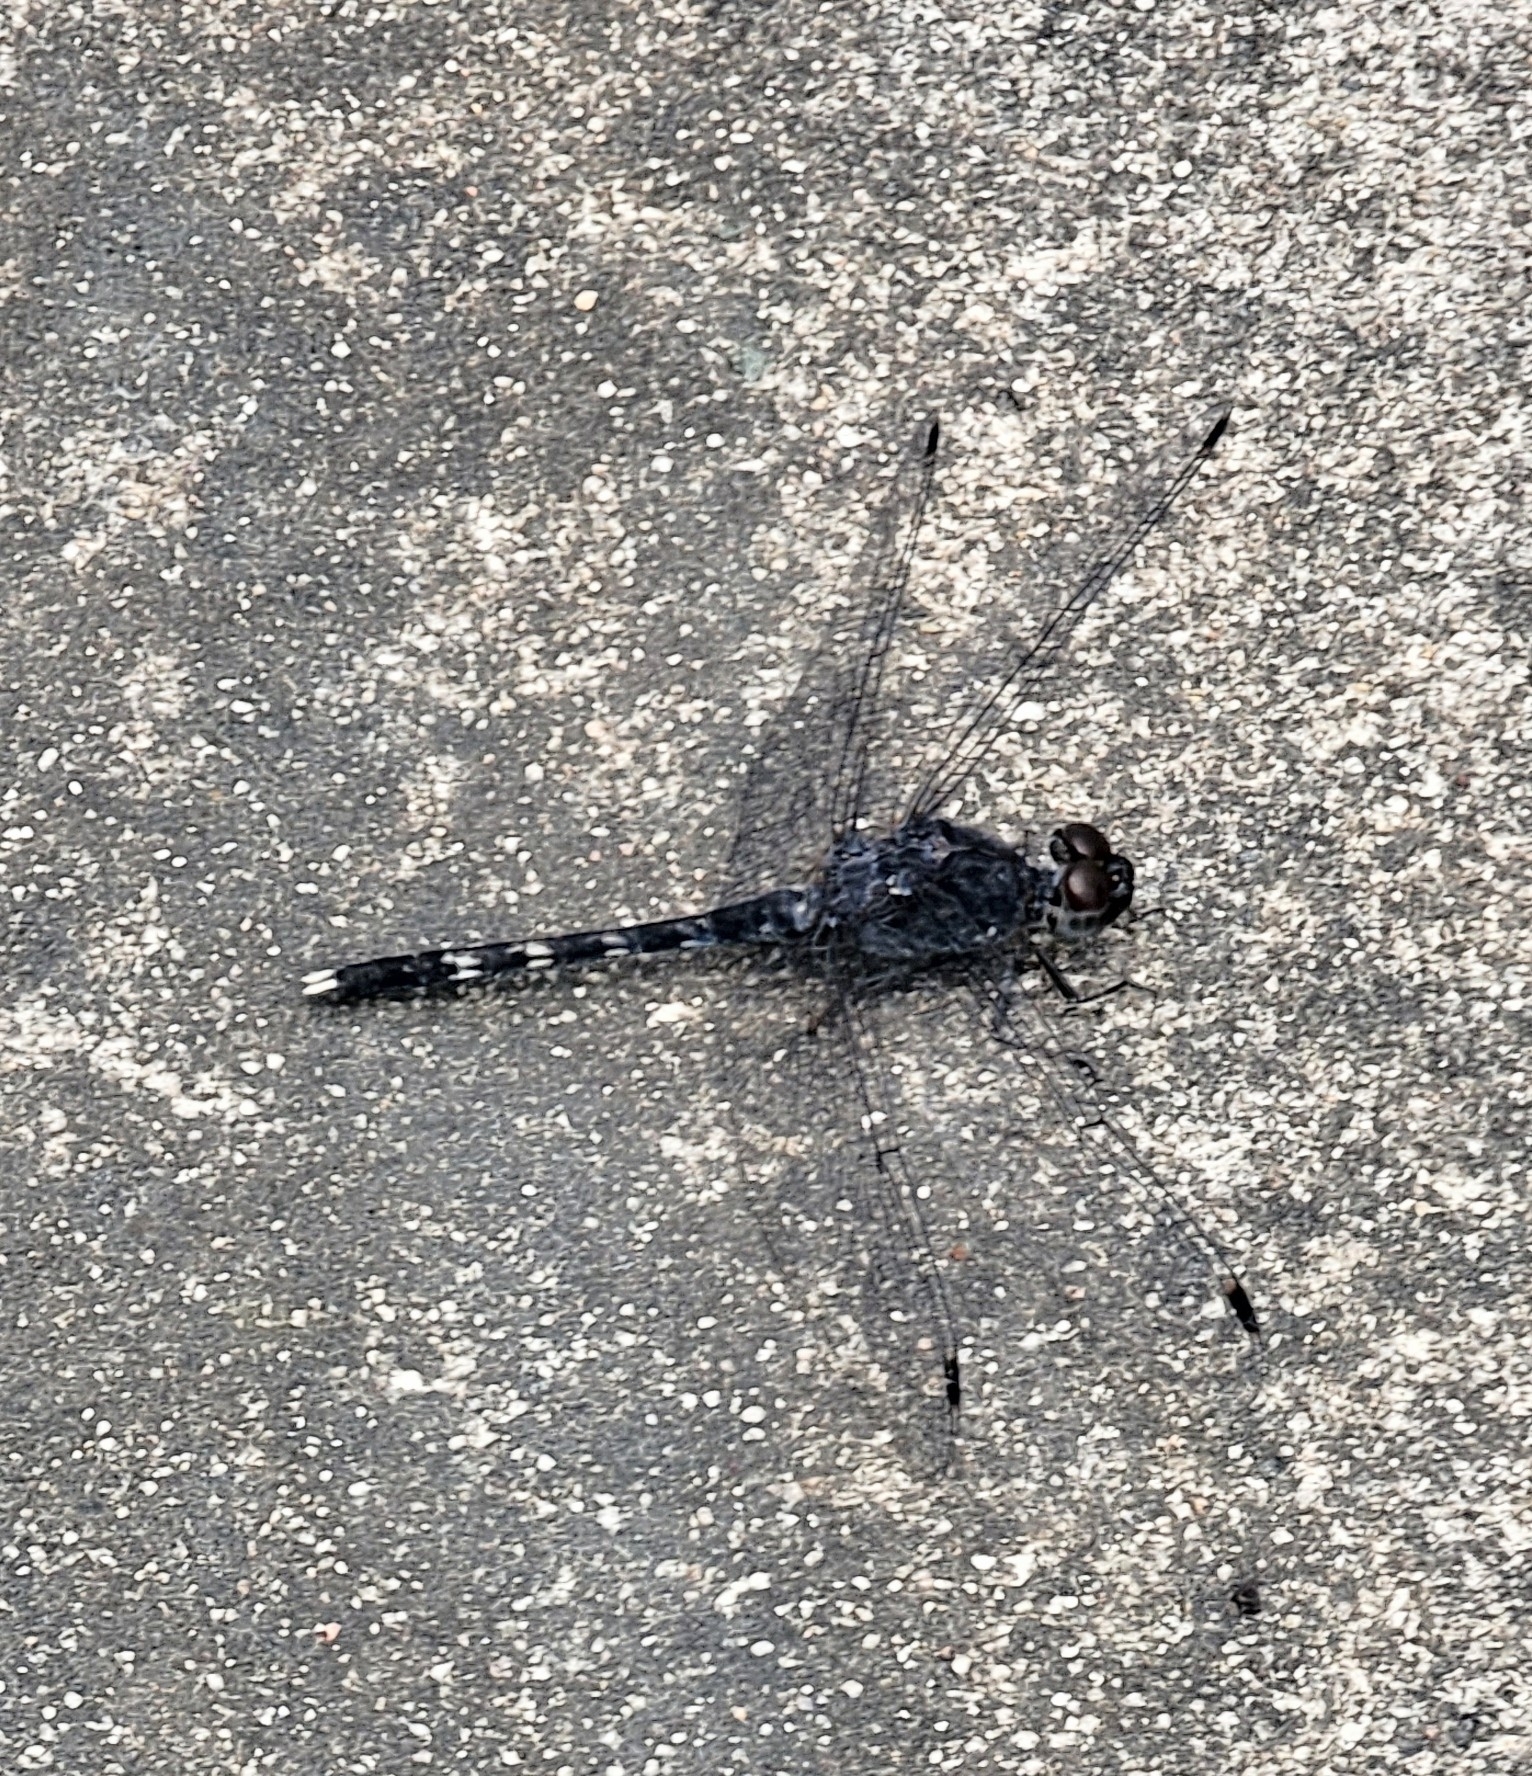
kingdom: Animalia
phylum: Arthropoda
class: Insecta
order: Odonata
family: Libellulidae
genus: Bradinopyga
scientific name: Bradinopyga geminata
